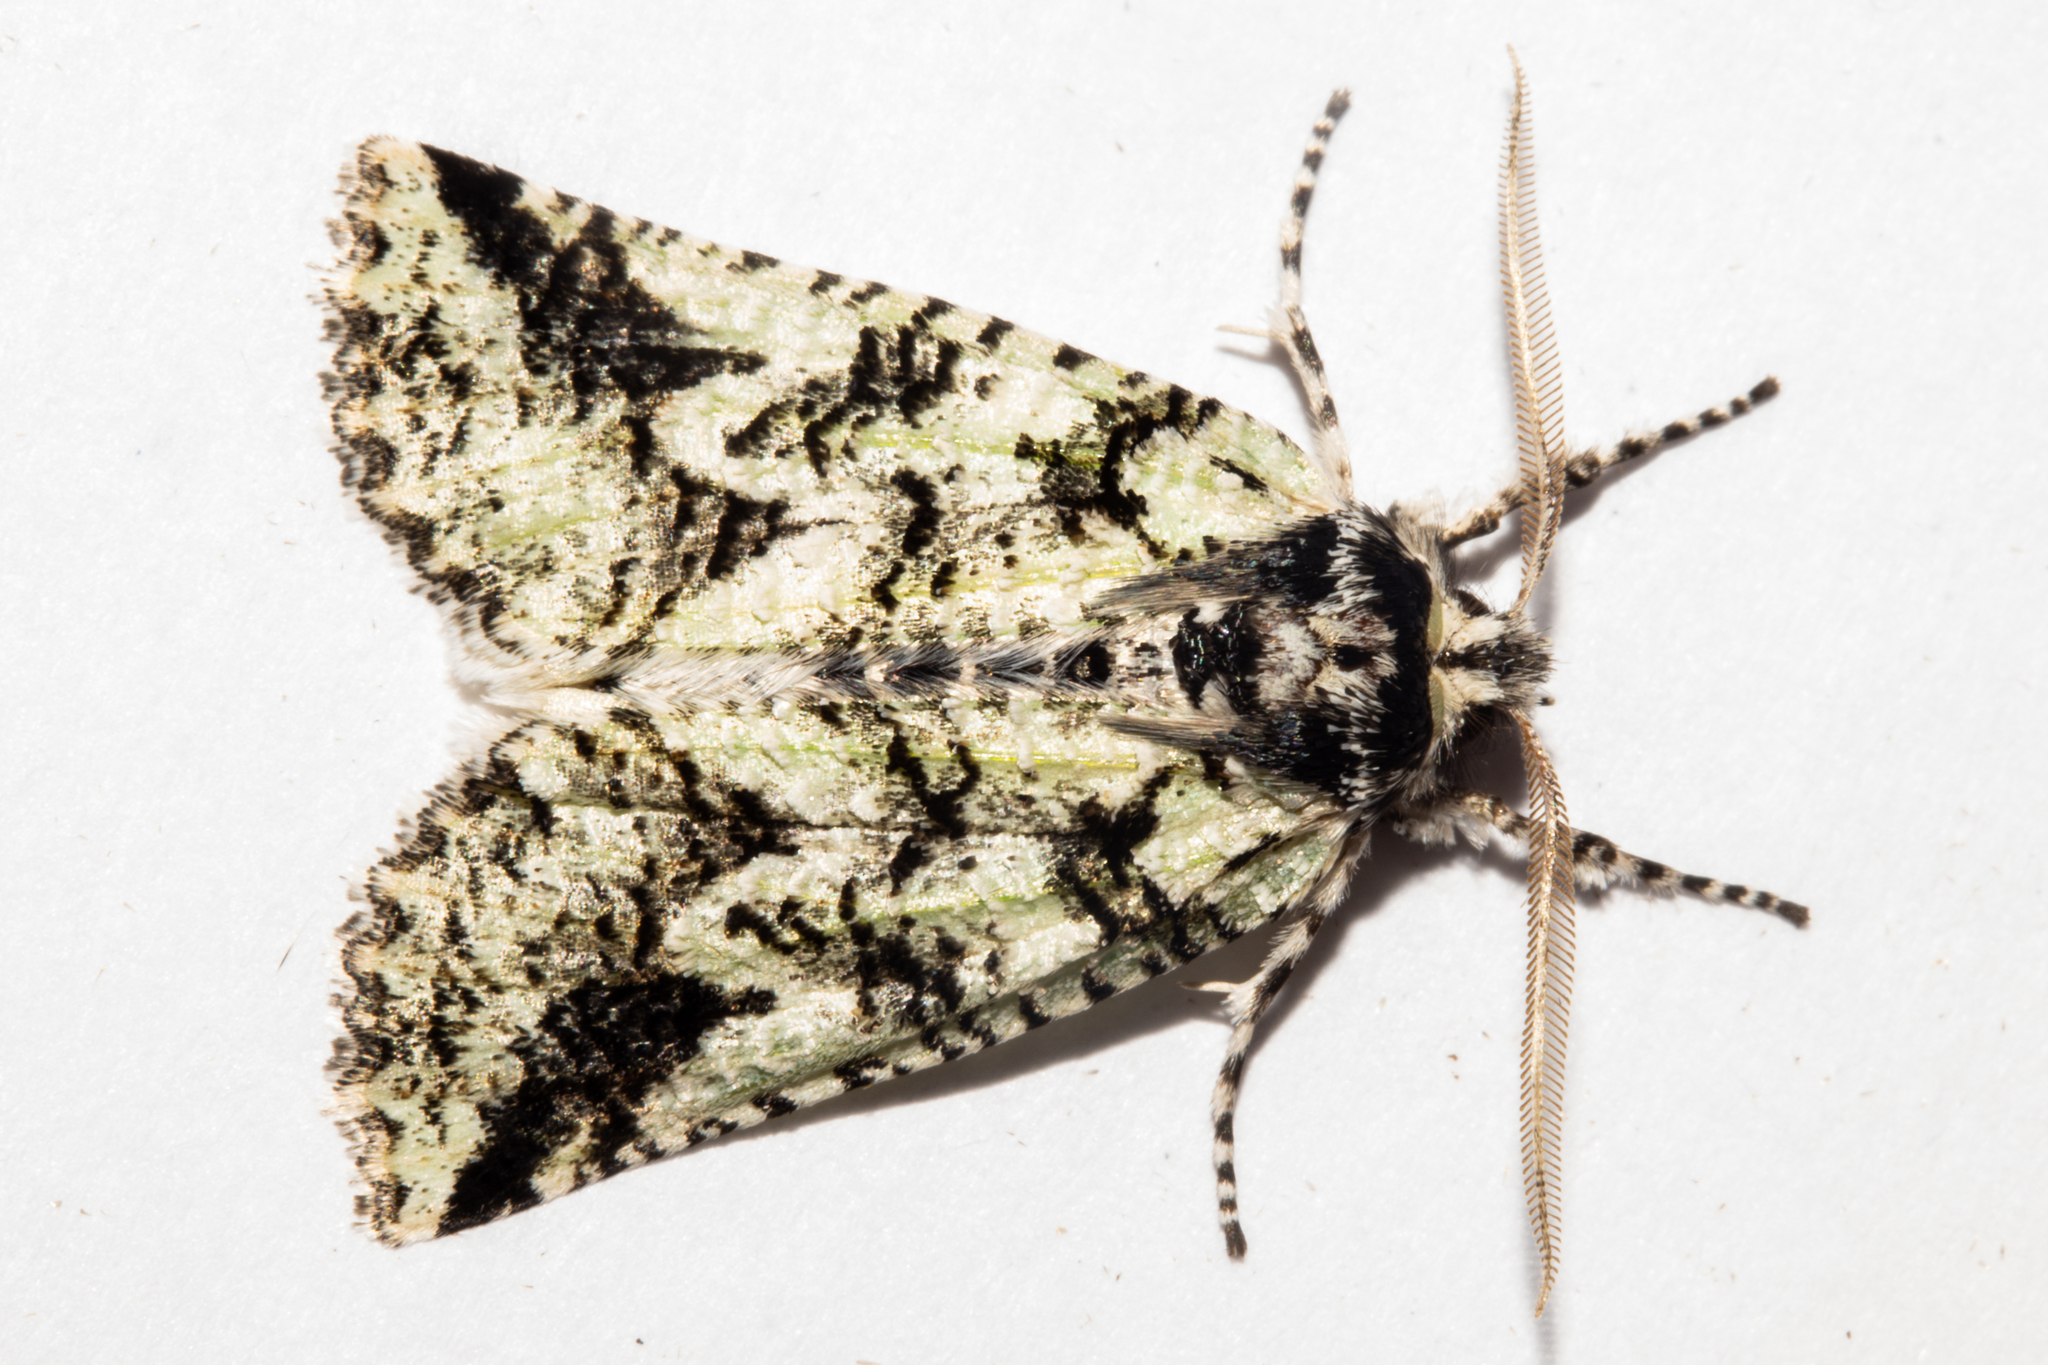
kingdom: Animalia
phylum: Arthropoda
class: Insecta
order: Lepidoptera
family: Geometridae
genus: Declana
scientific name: Declana floccosa
